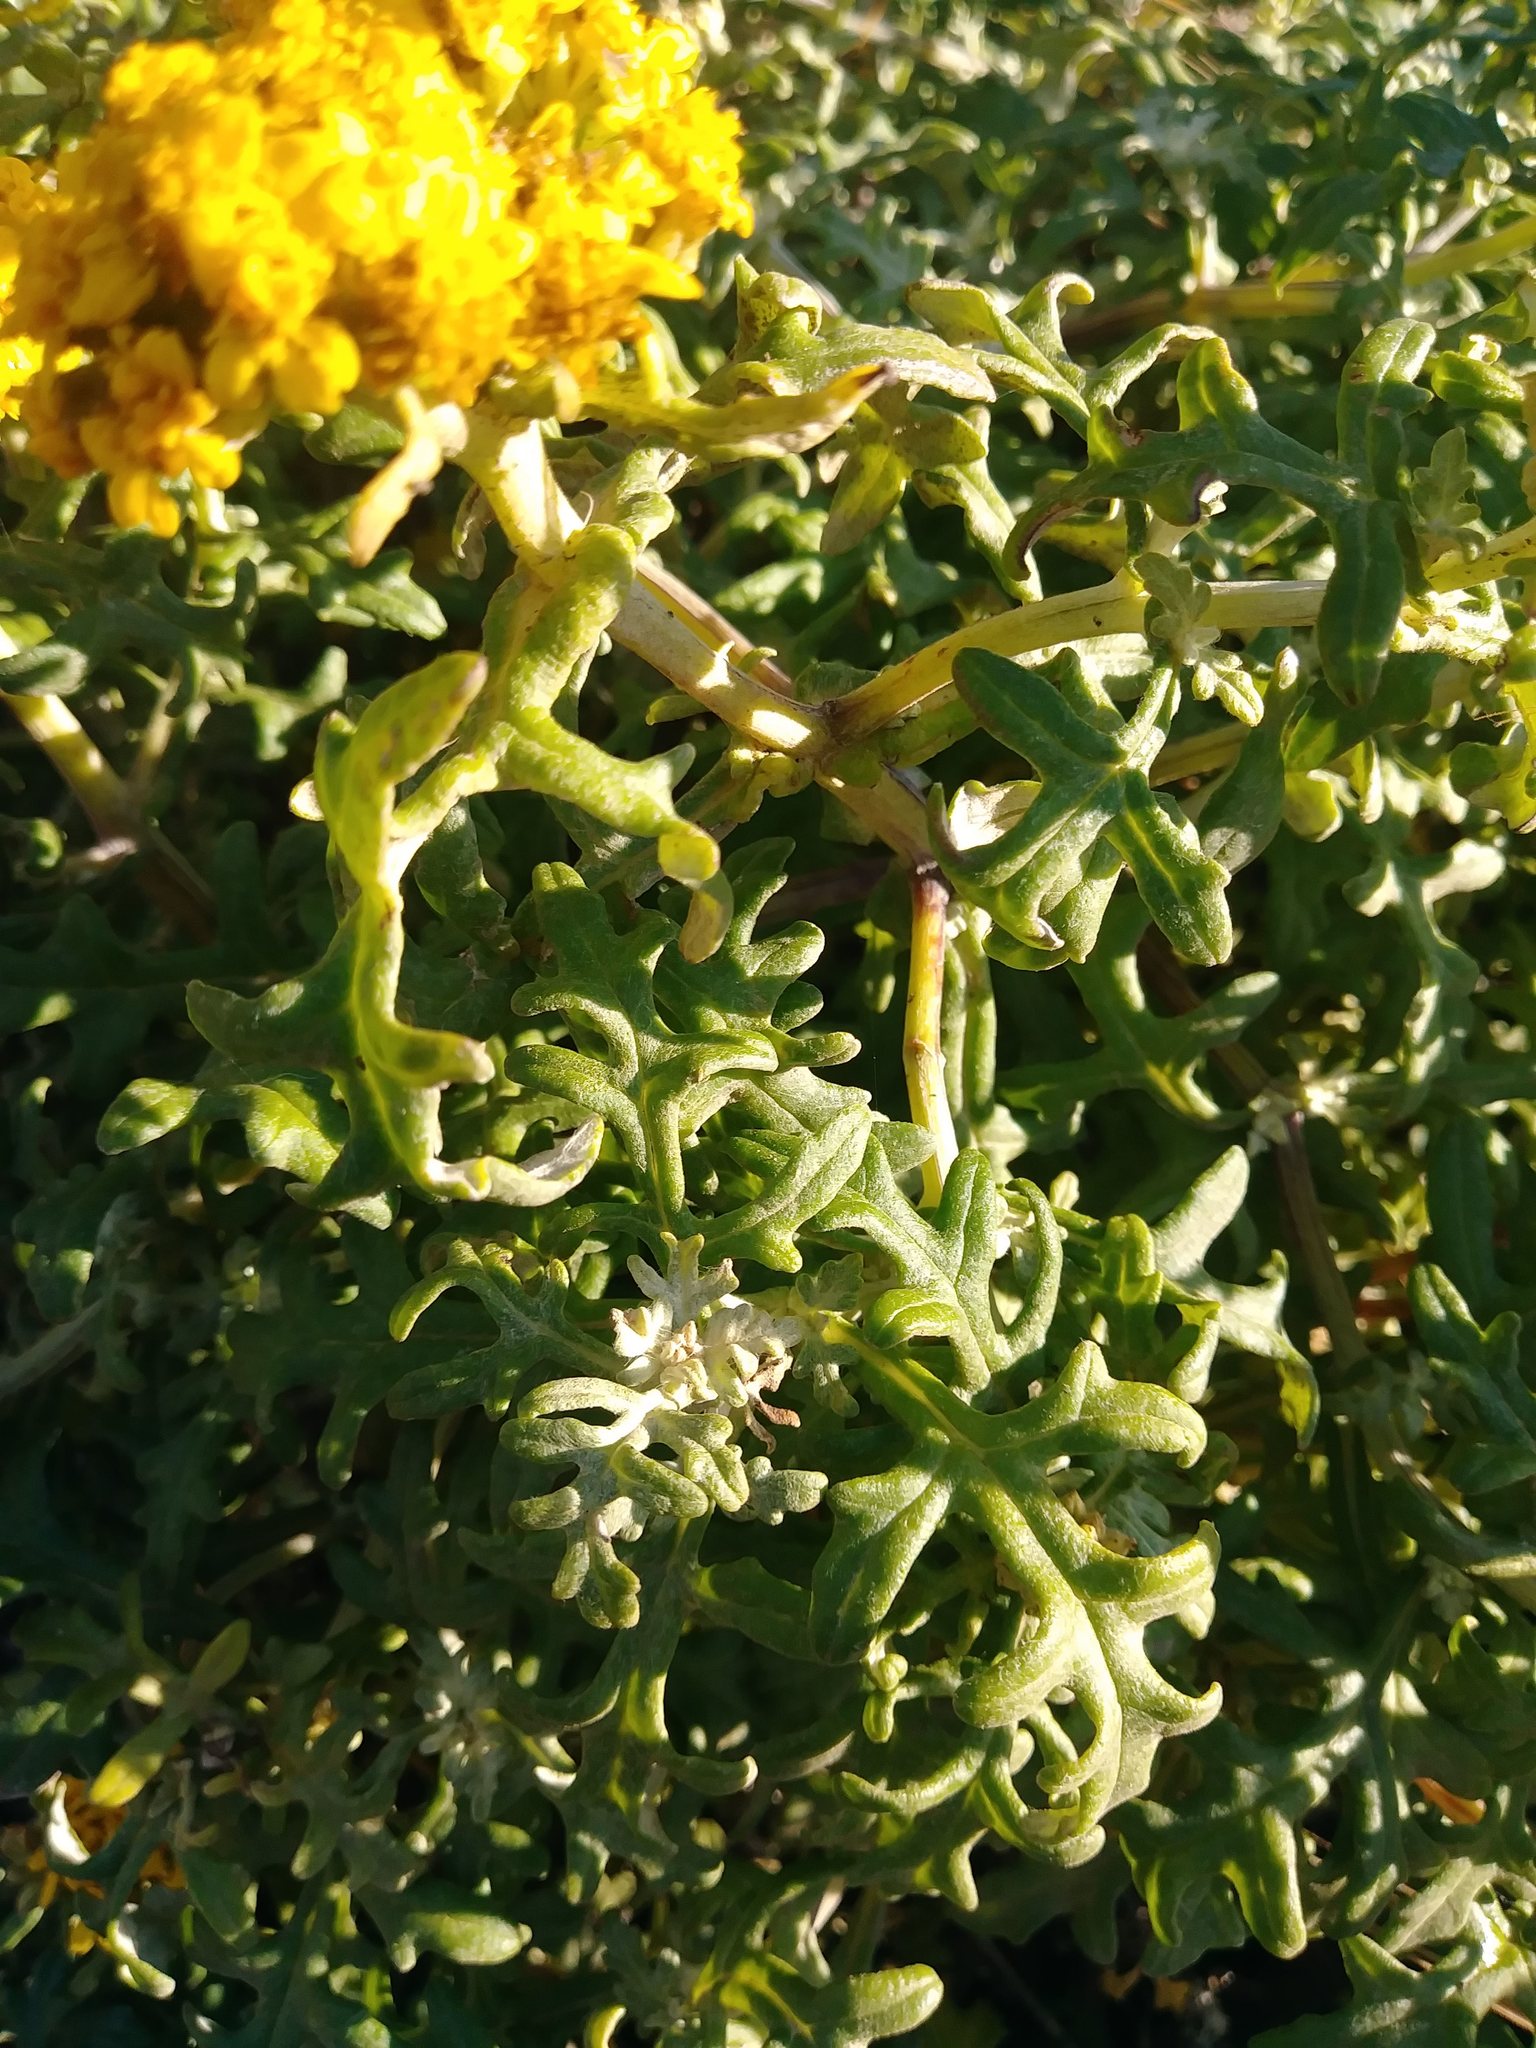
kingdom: Plantae
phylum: Tracheophyta
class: Magnoliopsida
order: Asterales
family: Asteraceae
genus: Eriophyllum
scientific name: Eriophyllum staechadifolium
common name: Lizardtail
